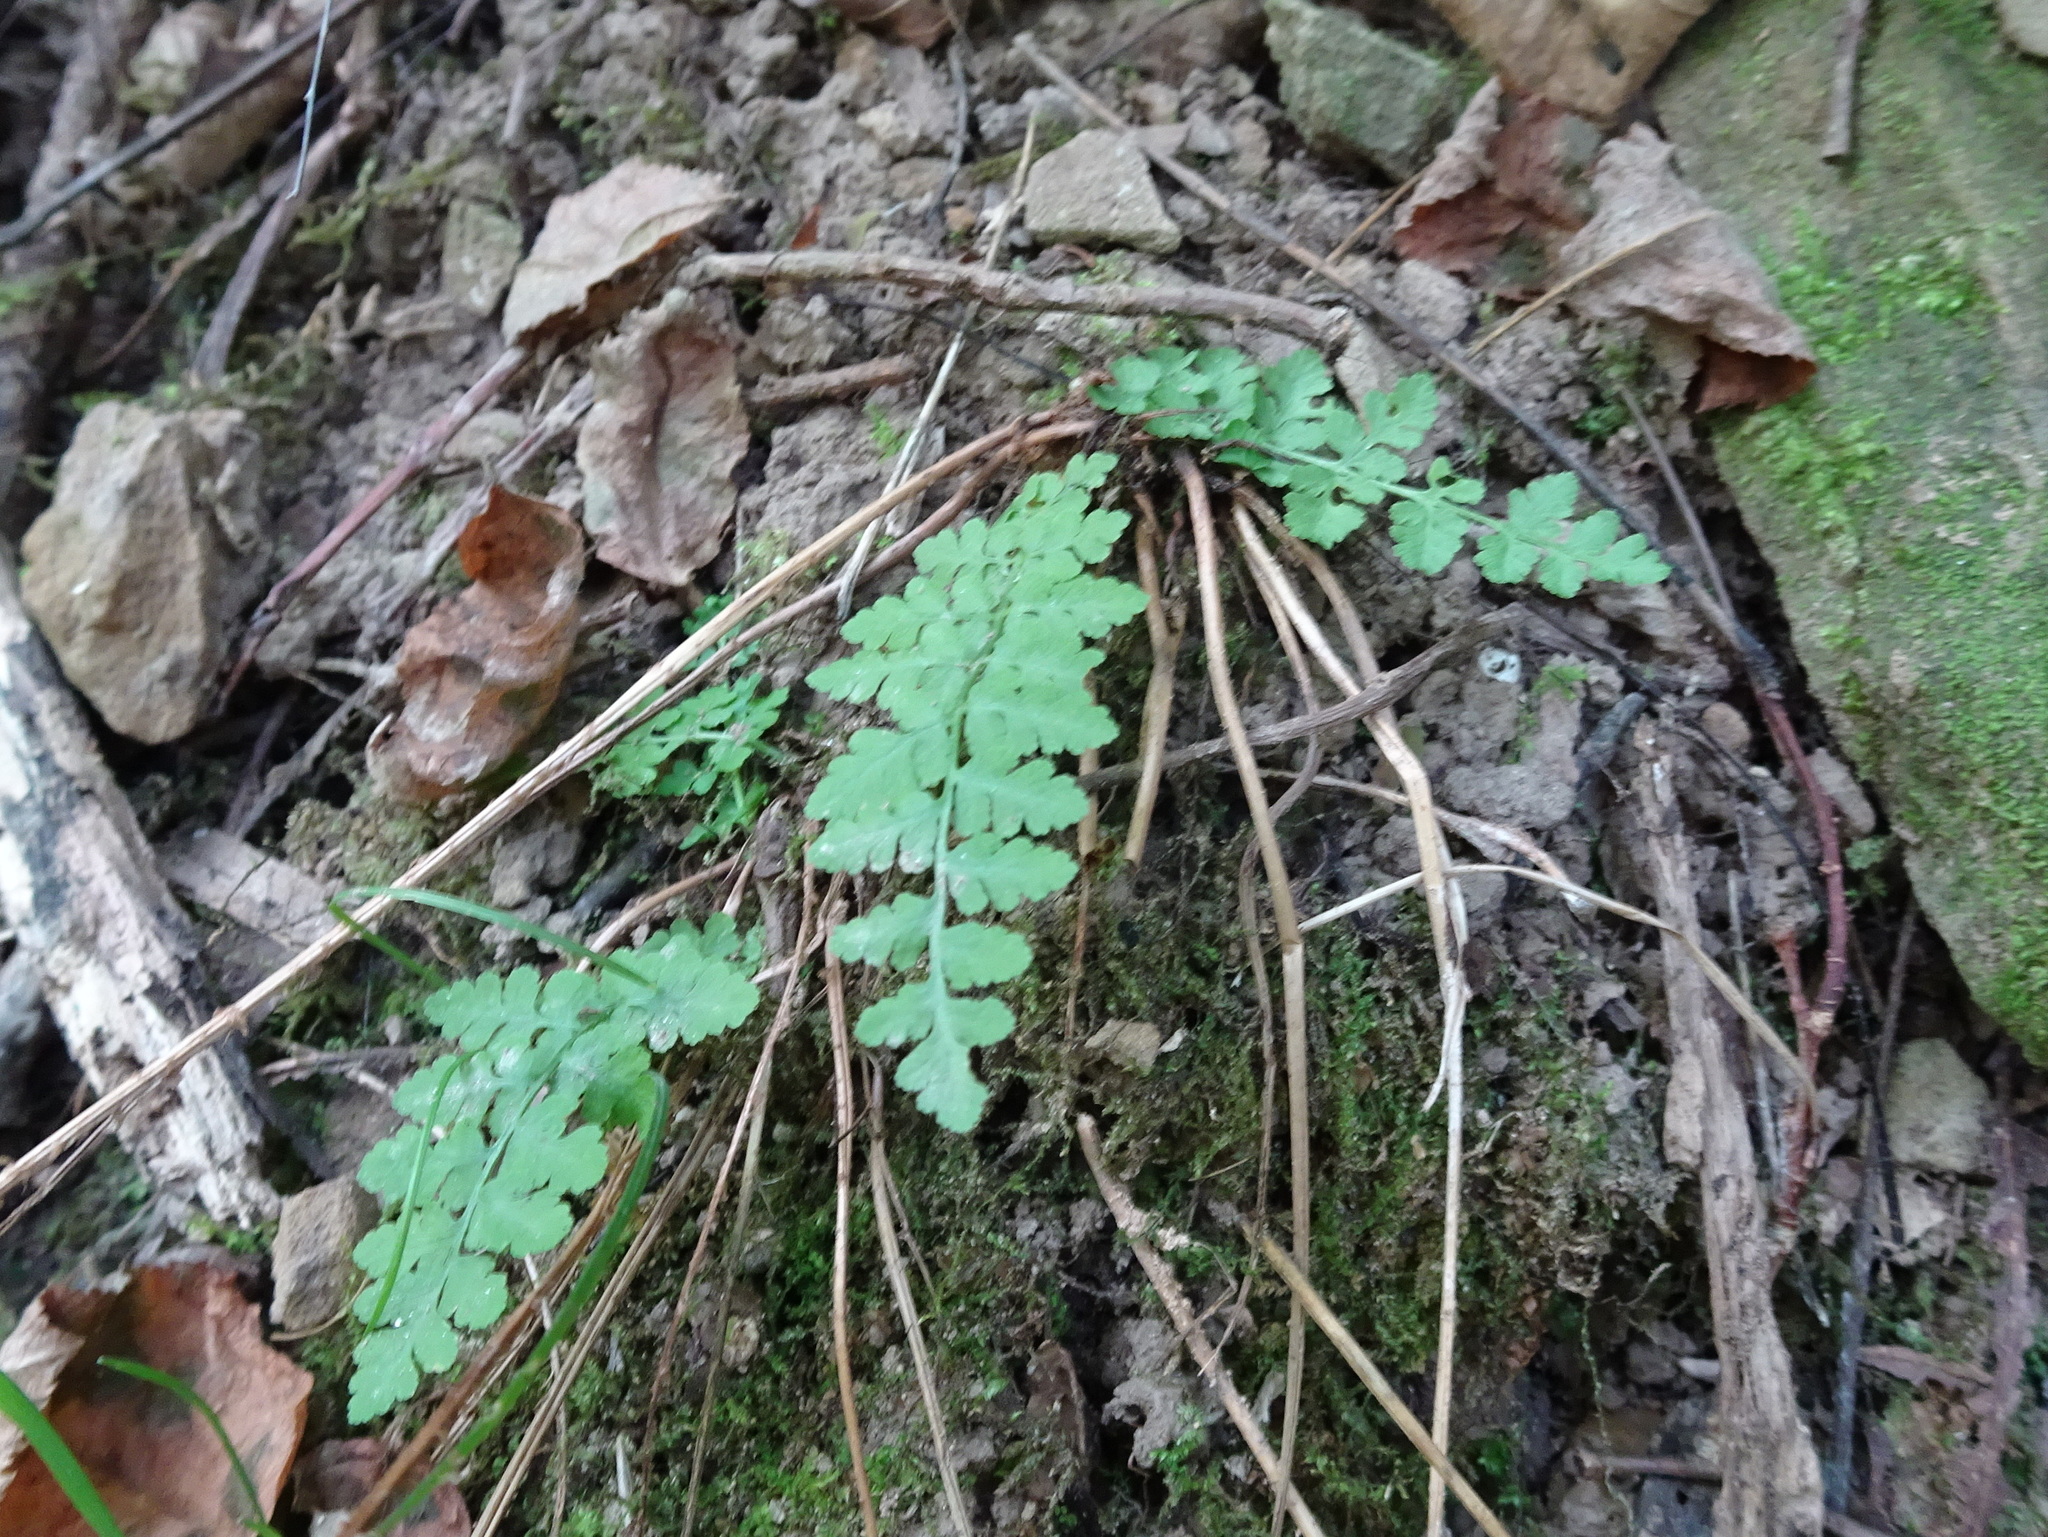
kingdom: Plantae
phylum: Tracheophyta
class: Polypodiopsida
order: Polypodiales
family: Woodsiaceae
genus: Physematium
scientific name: Physematium obtusum
